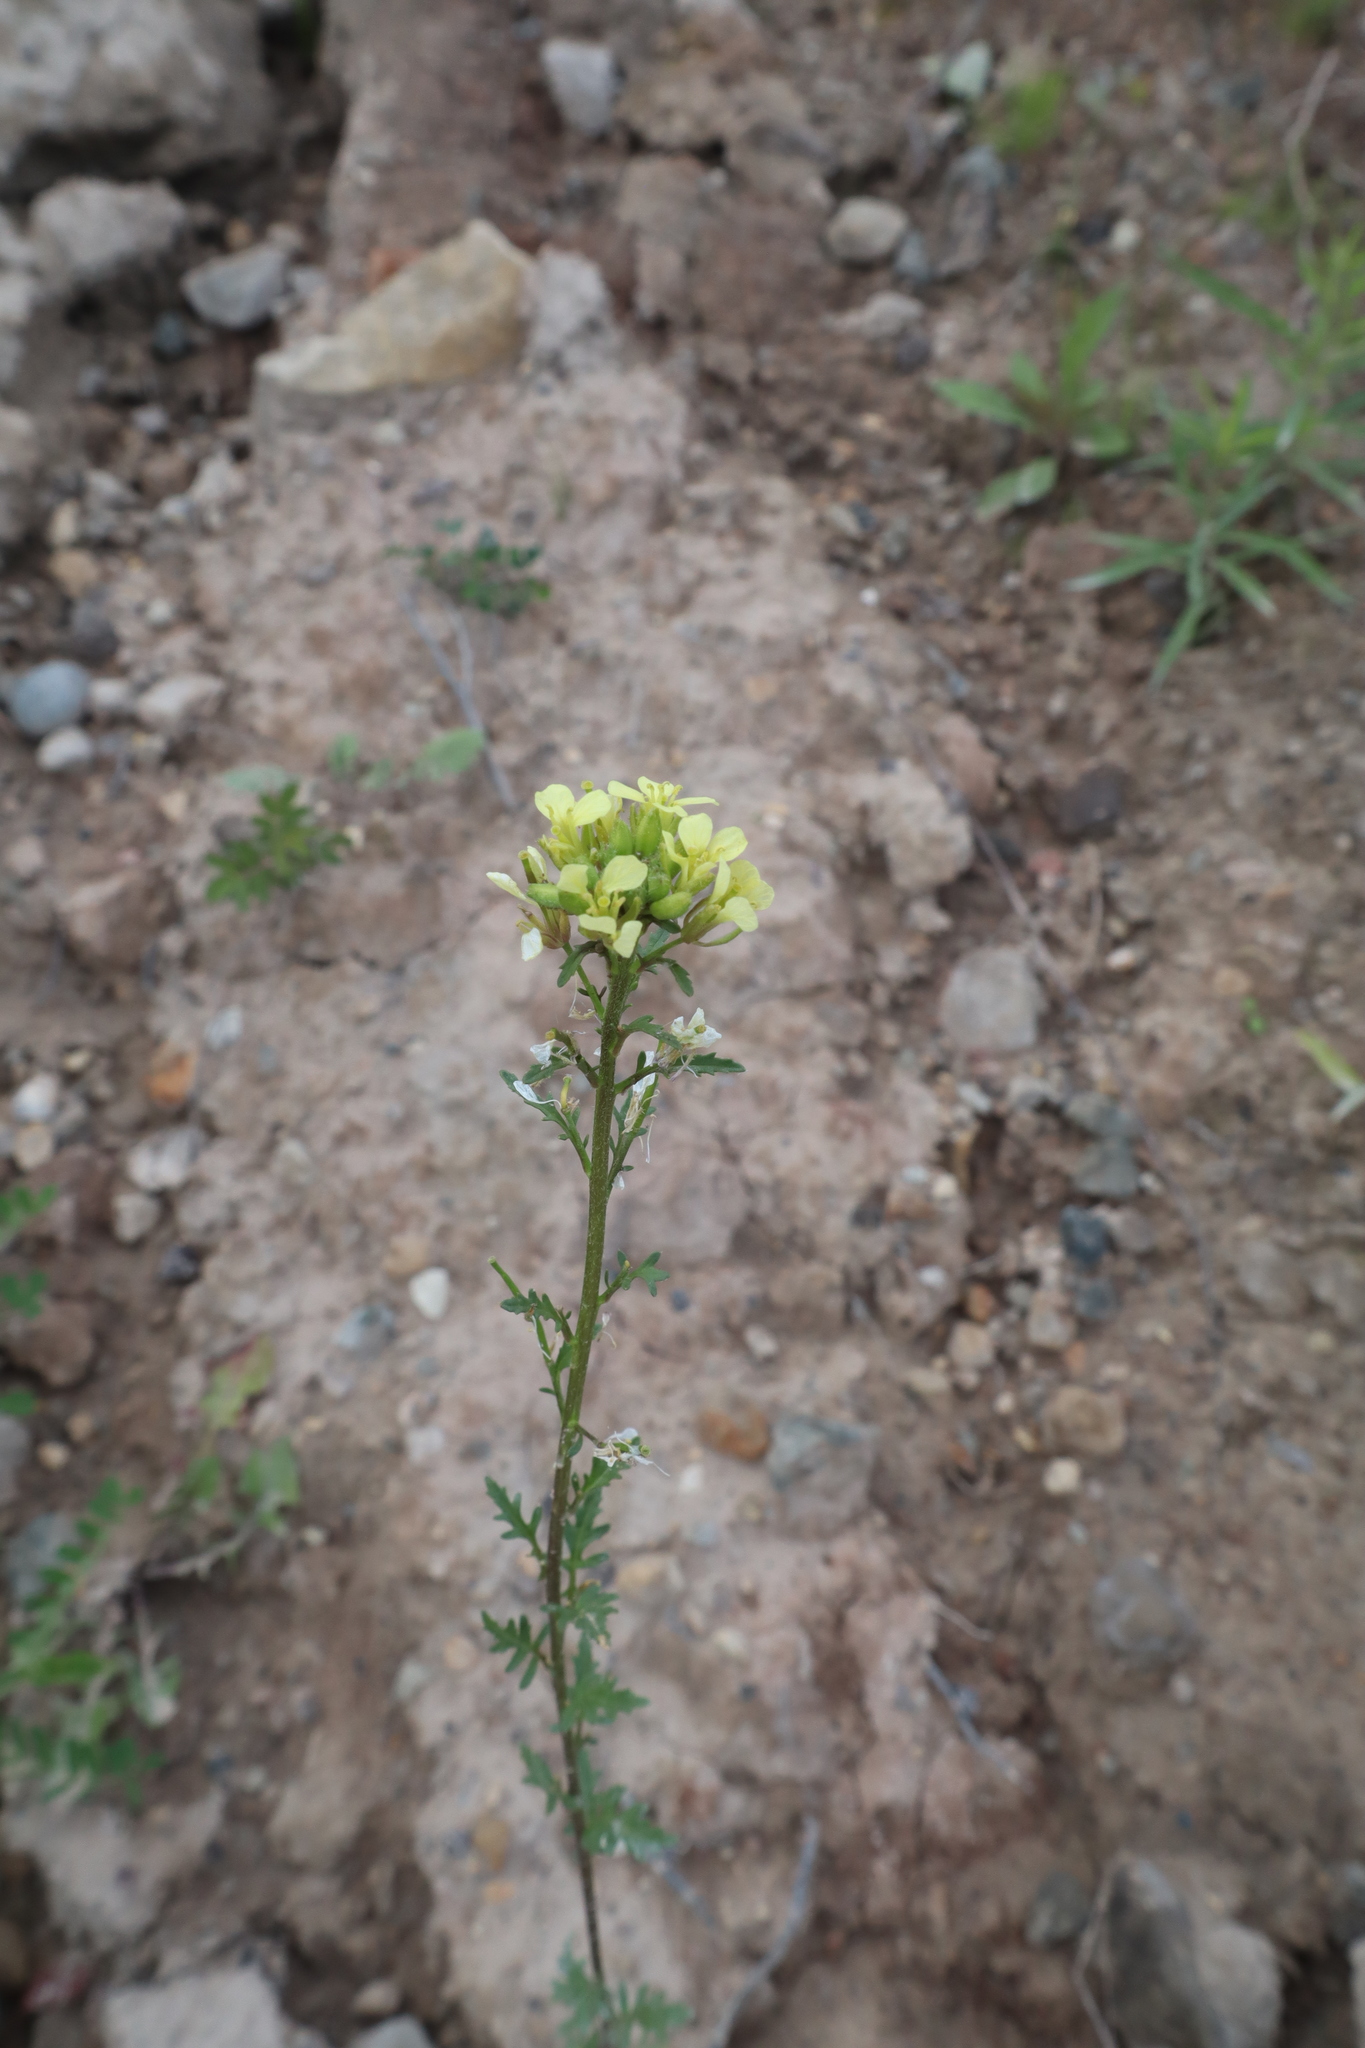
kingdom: Plantae
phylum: Tracheophyta
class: Magnoliopsida
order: Brassicales
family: Brassicaceae
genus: Erucastrum
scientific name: Erucastrum gallicum
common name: Hairy rocket
